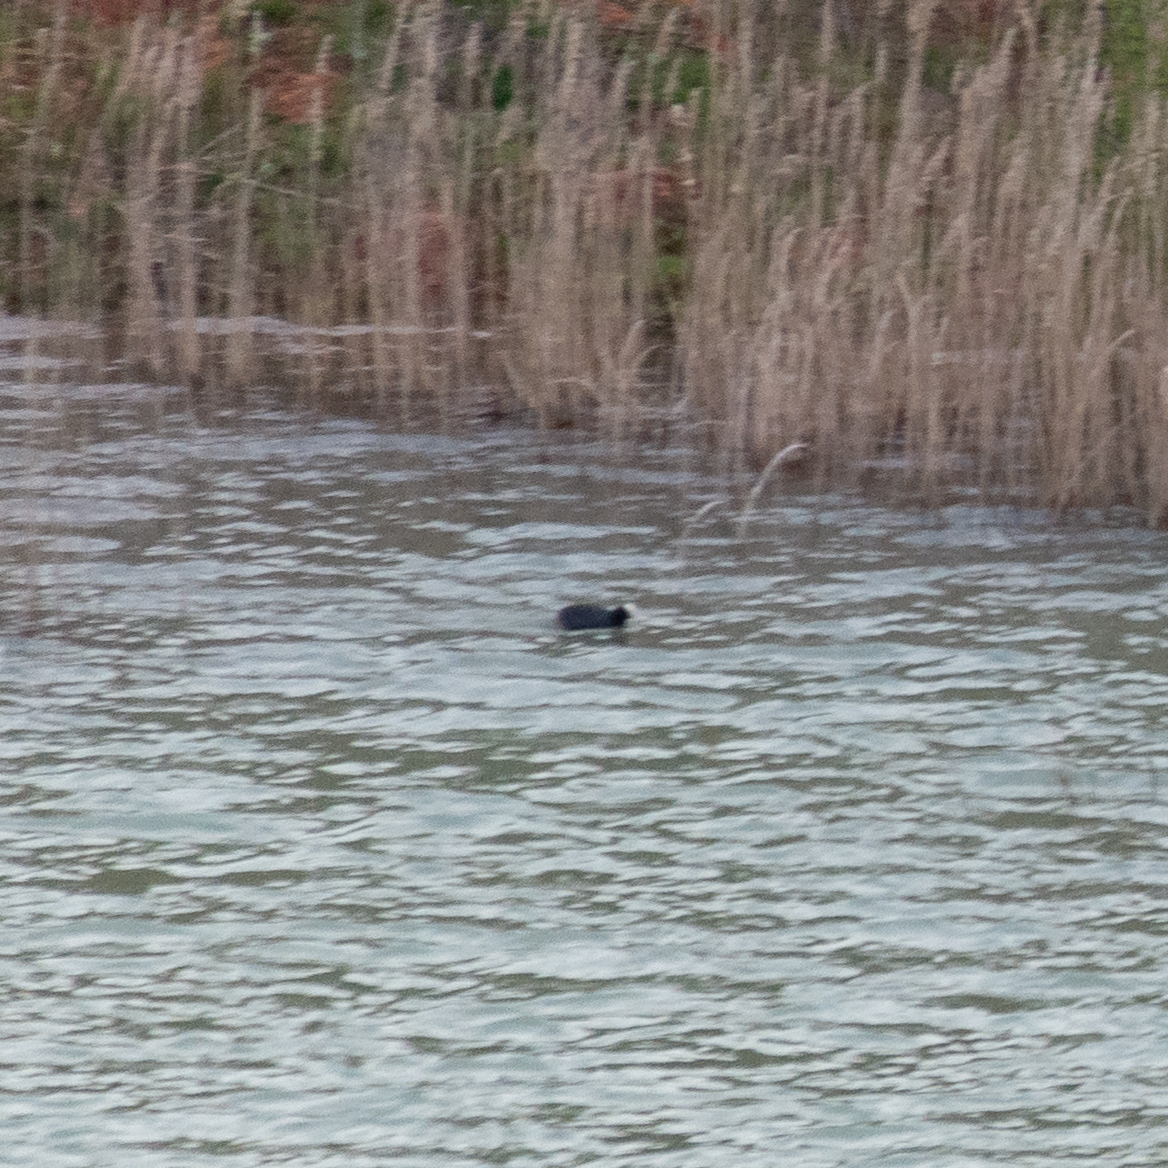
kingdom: Animalia
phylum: Chordata
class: Aves
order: Gruiformes
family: Rallidae
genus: Fulica
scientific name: Fulica atra
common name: Eurasian coot
